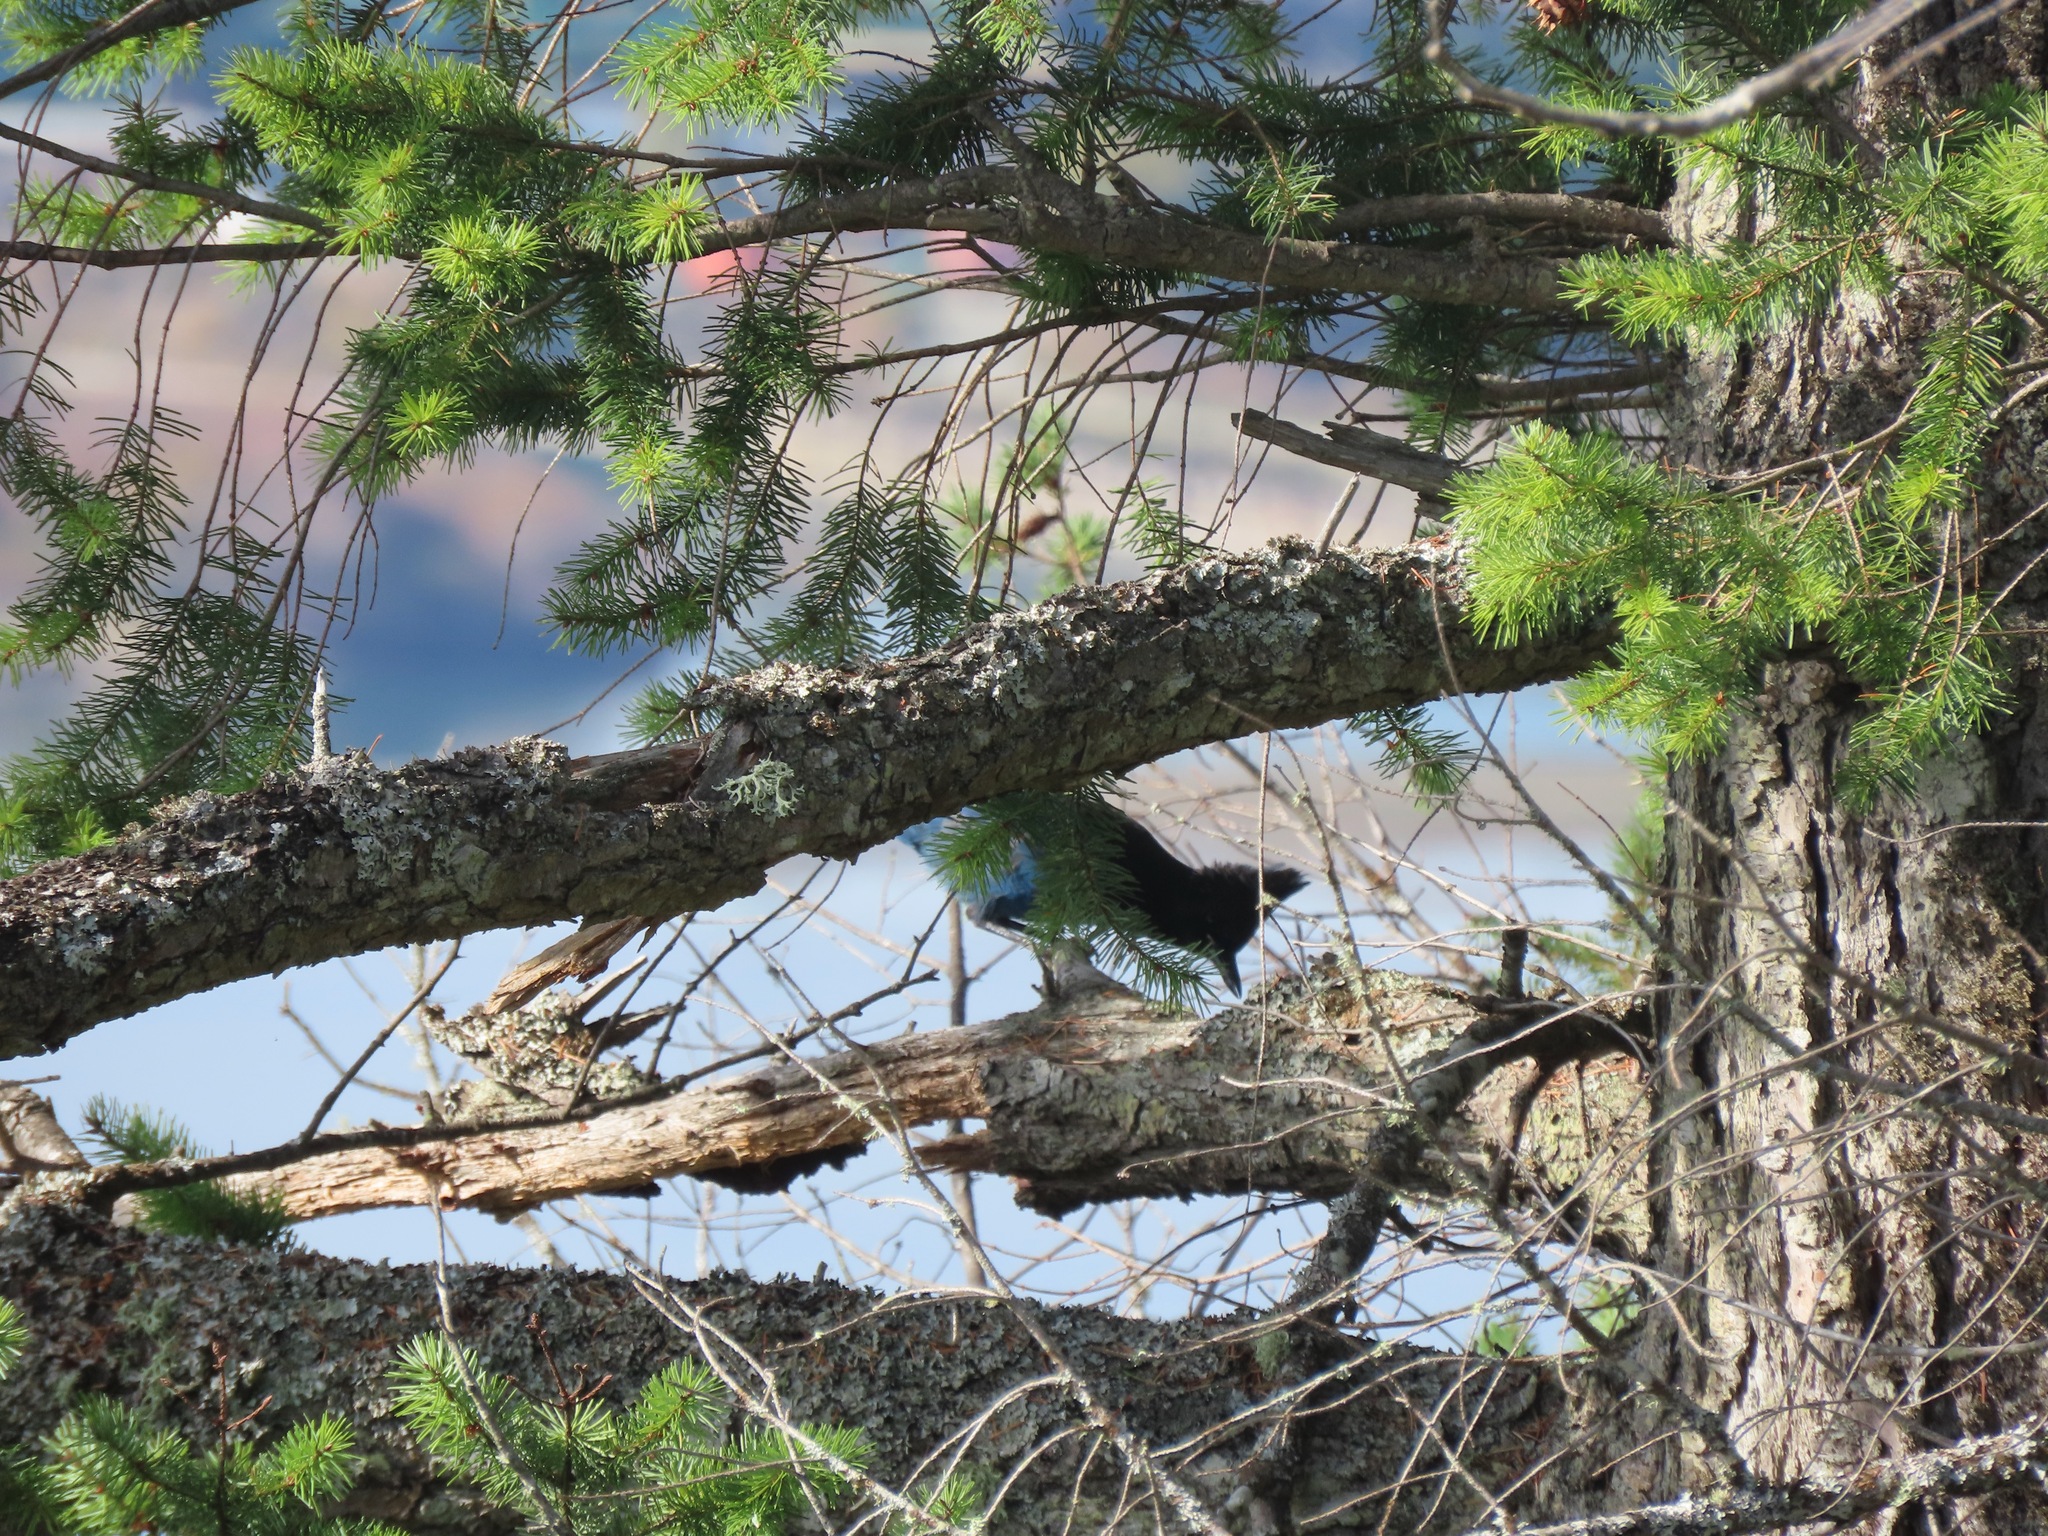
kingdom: Animalia
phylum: Chordata
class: Aves
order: Passeriformes
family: Corvidae
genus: Cyanocitta
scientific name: Cyanocitta stelleri
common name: Steller's jay
